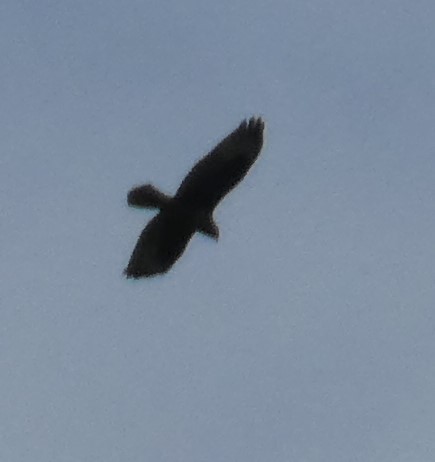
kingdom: Animalia
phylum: Chordata
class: Aves
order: Accipitriformes
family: Accipitridae
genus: Buteo
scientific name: Buteo buteo
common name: Common buzzard
